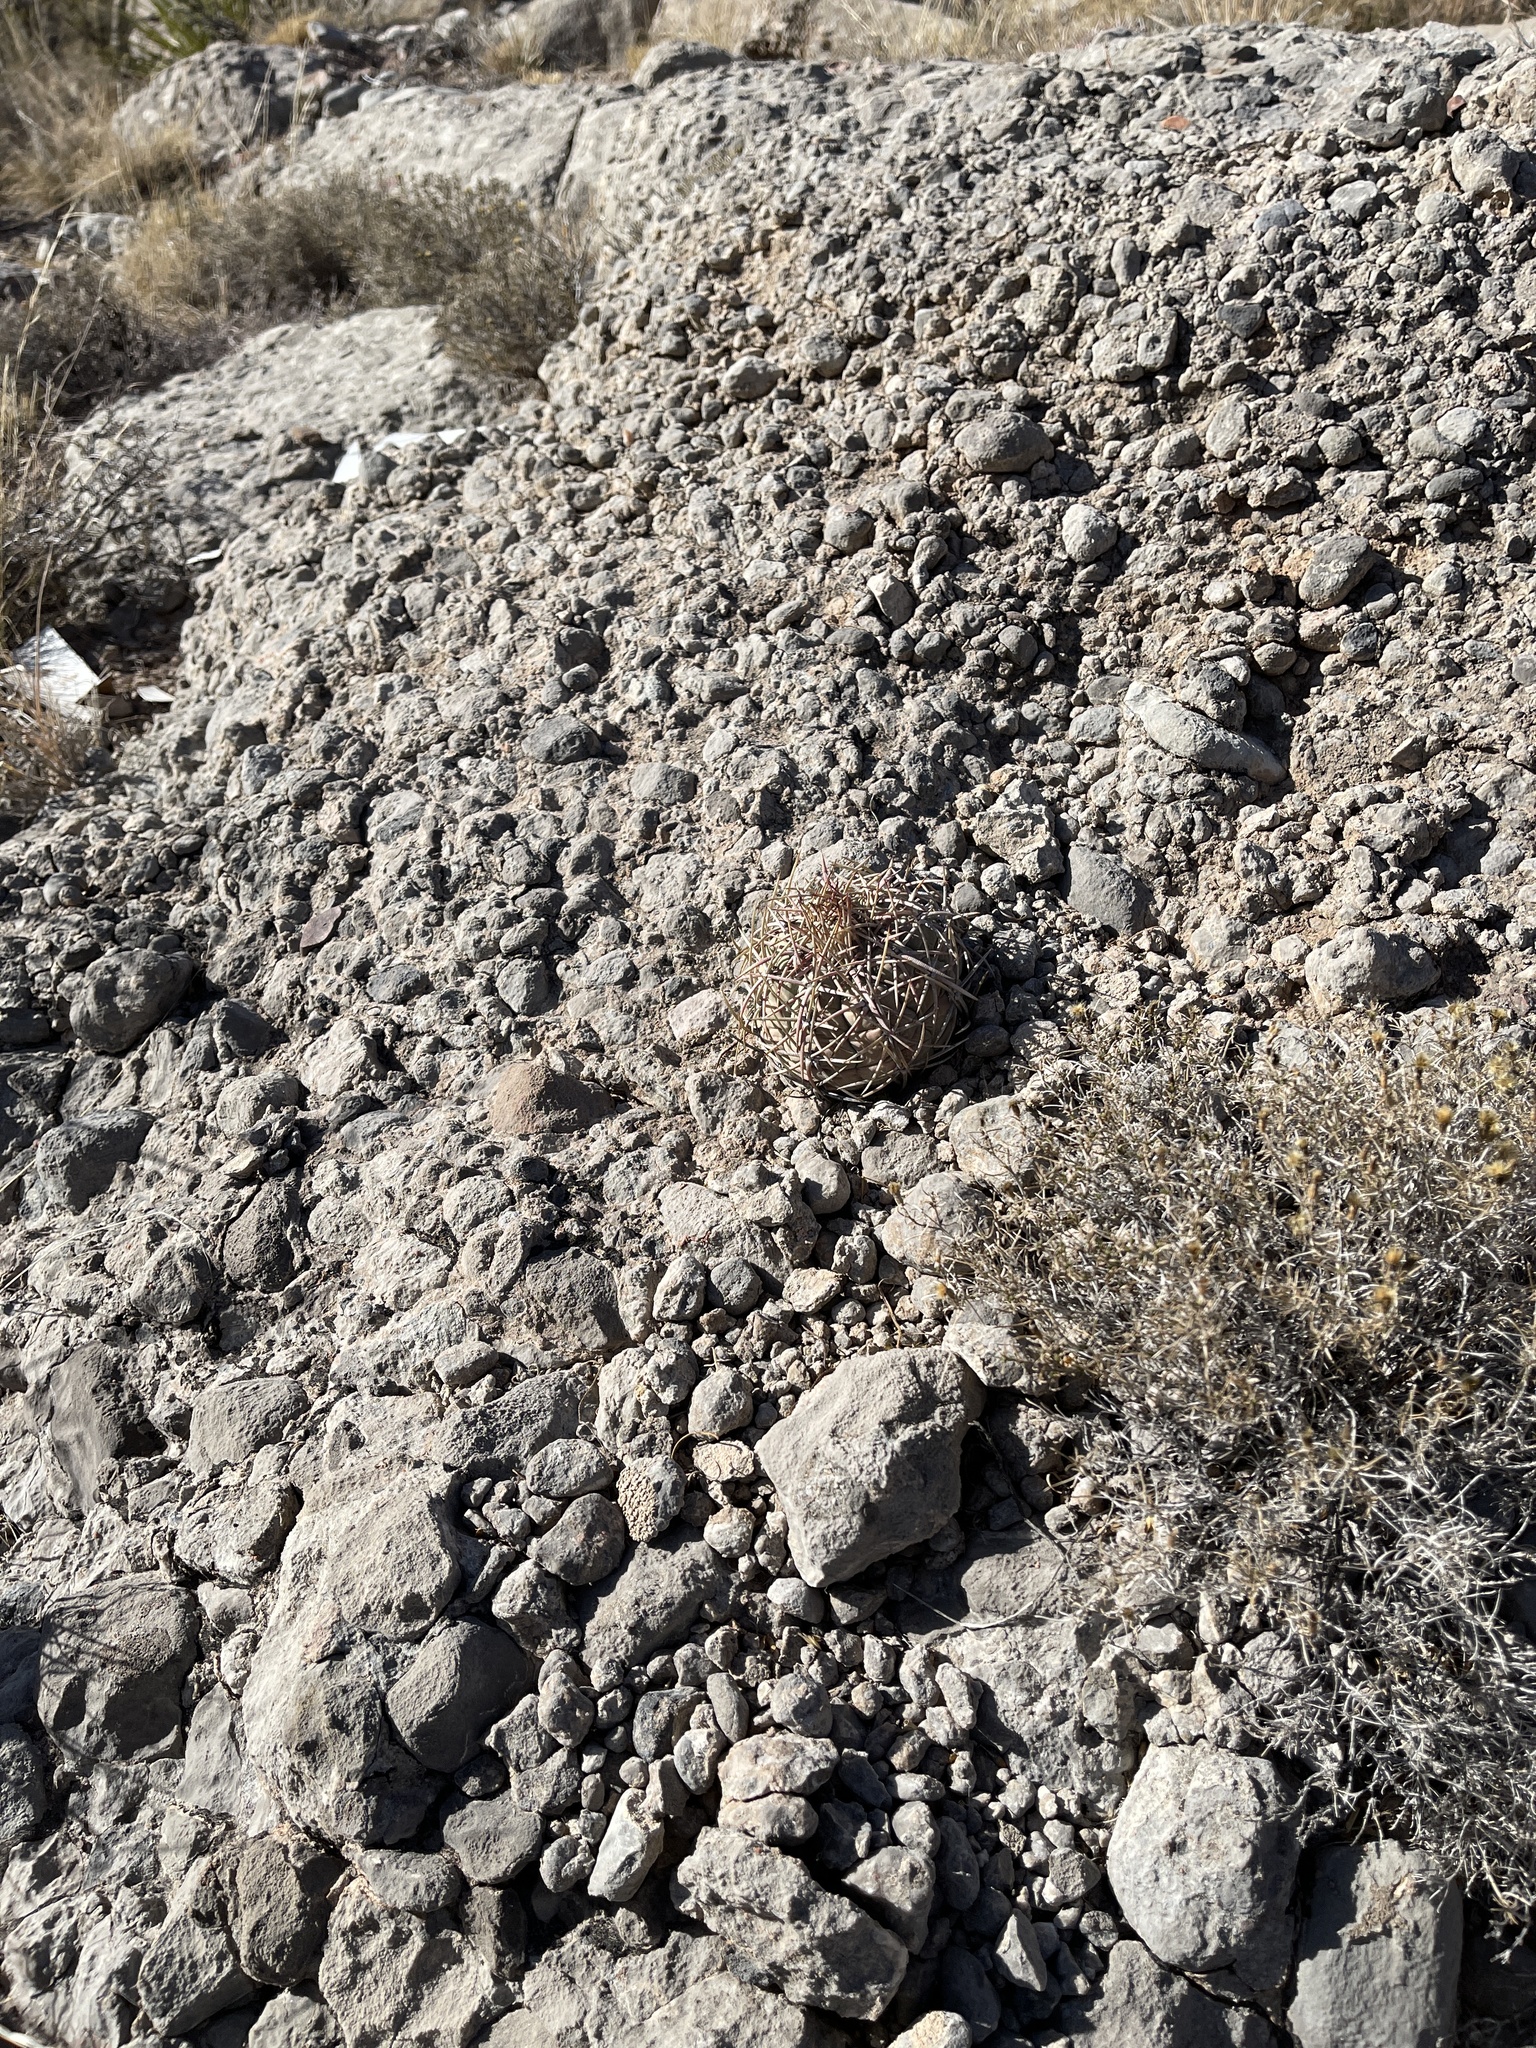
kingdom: Plantae
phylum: Tracheophyta
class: Magnoliopsida
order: Caryophyllales
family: Cactaceae
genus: Echinocactus
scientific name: Echinocactus horizonthalonius
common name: Devilshead
